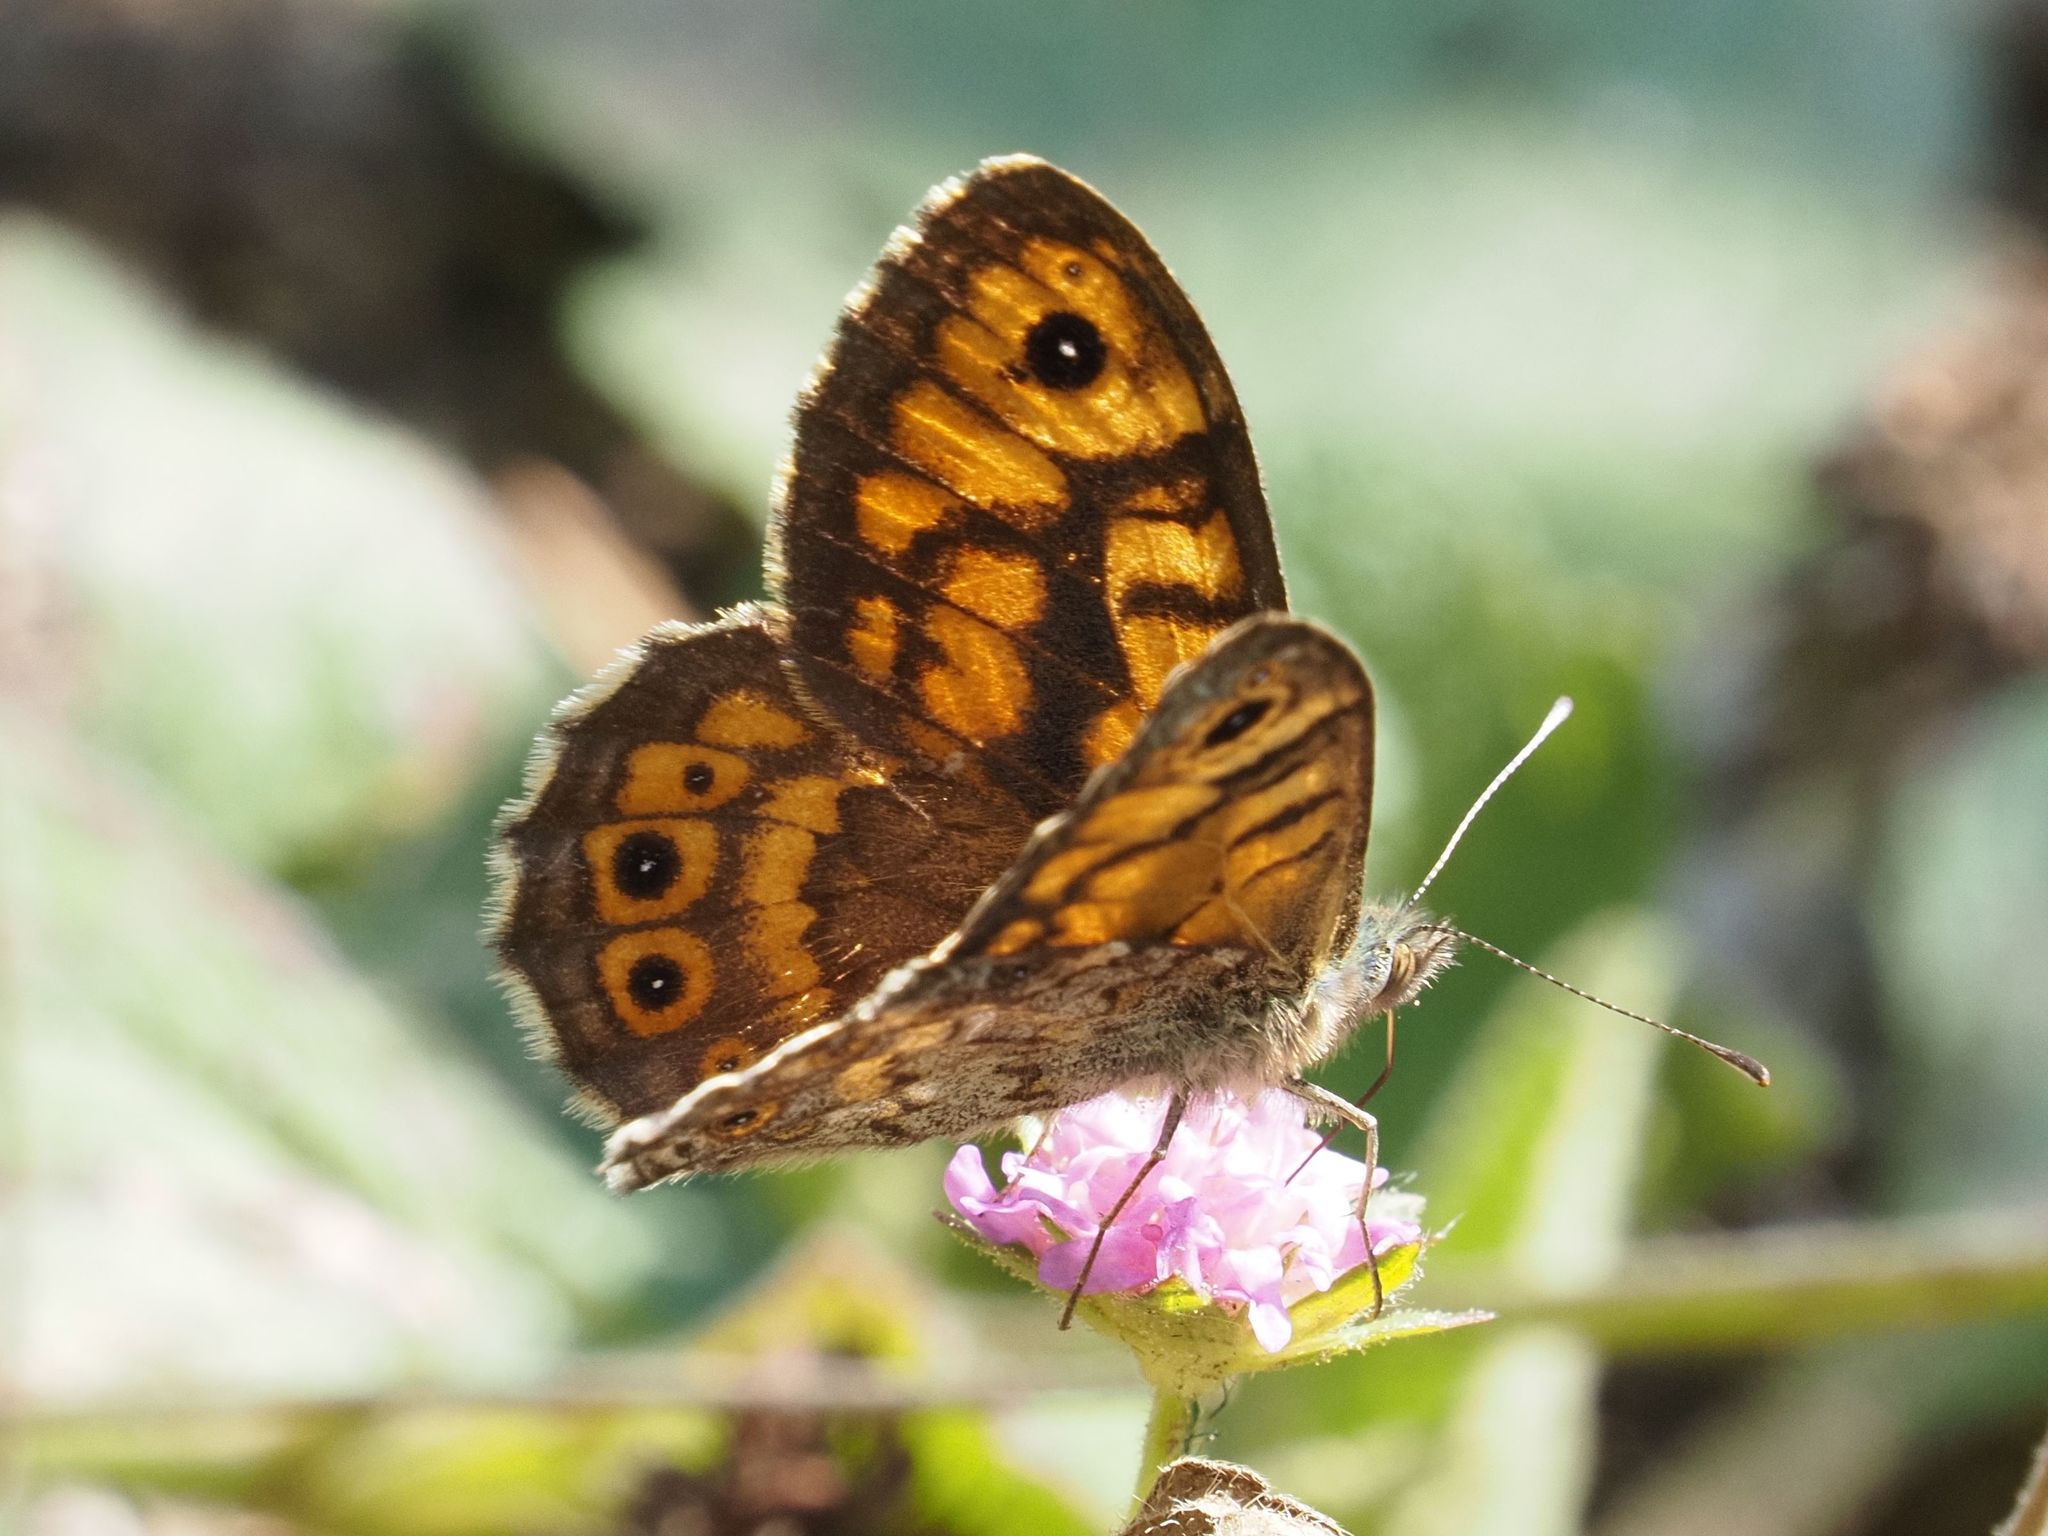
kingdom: Animalia
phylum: Arthropoda
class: Insecta
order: Lepidoptera
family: Nymphalidae
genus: Pararge
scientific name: Pararge Lasiommata megera
